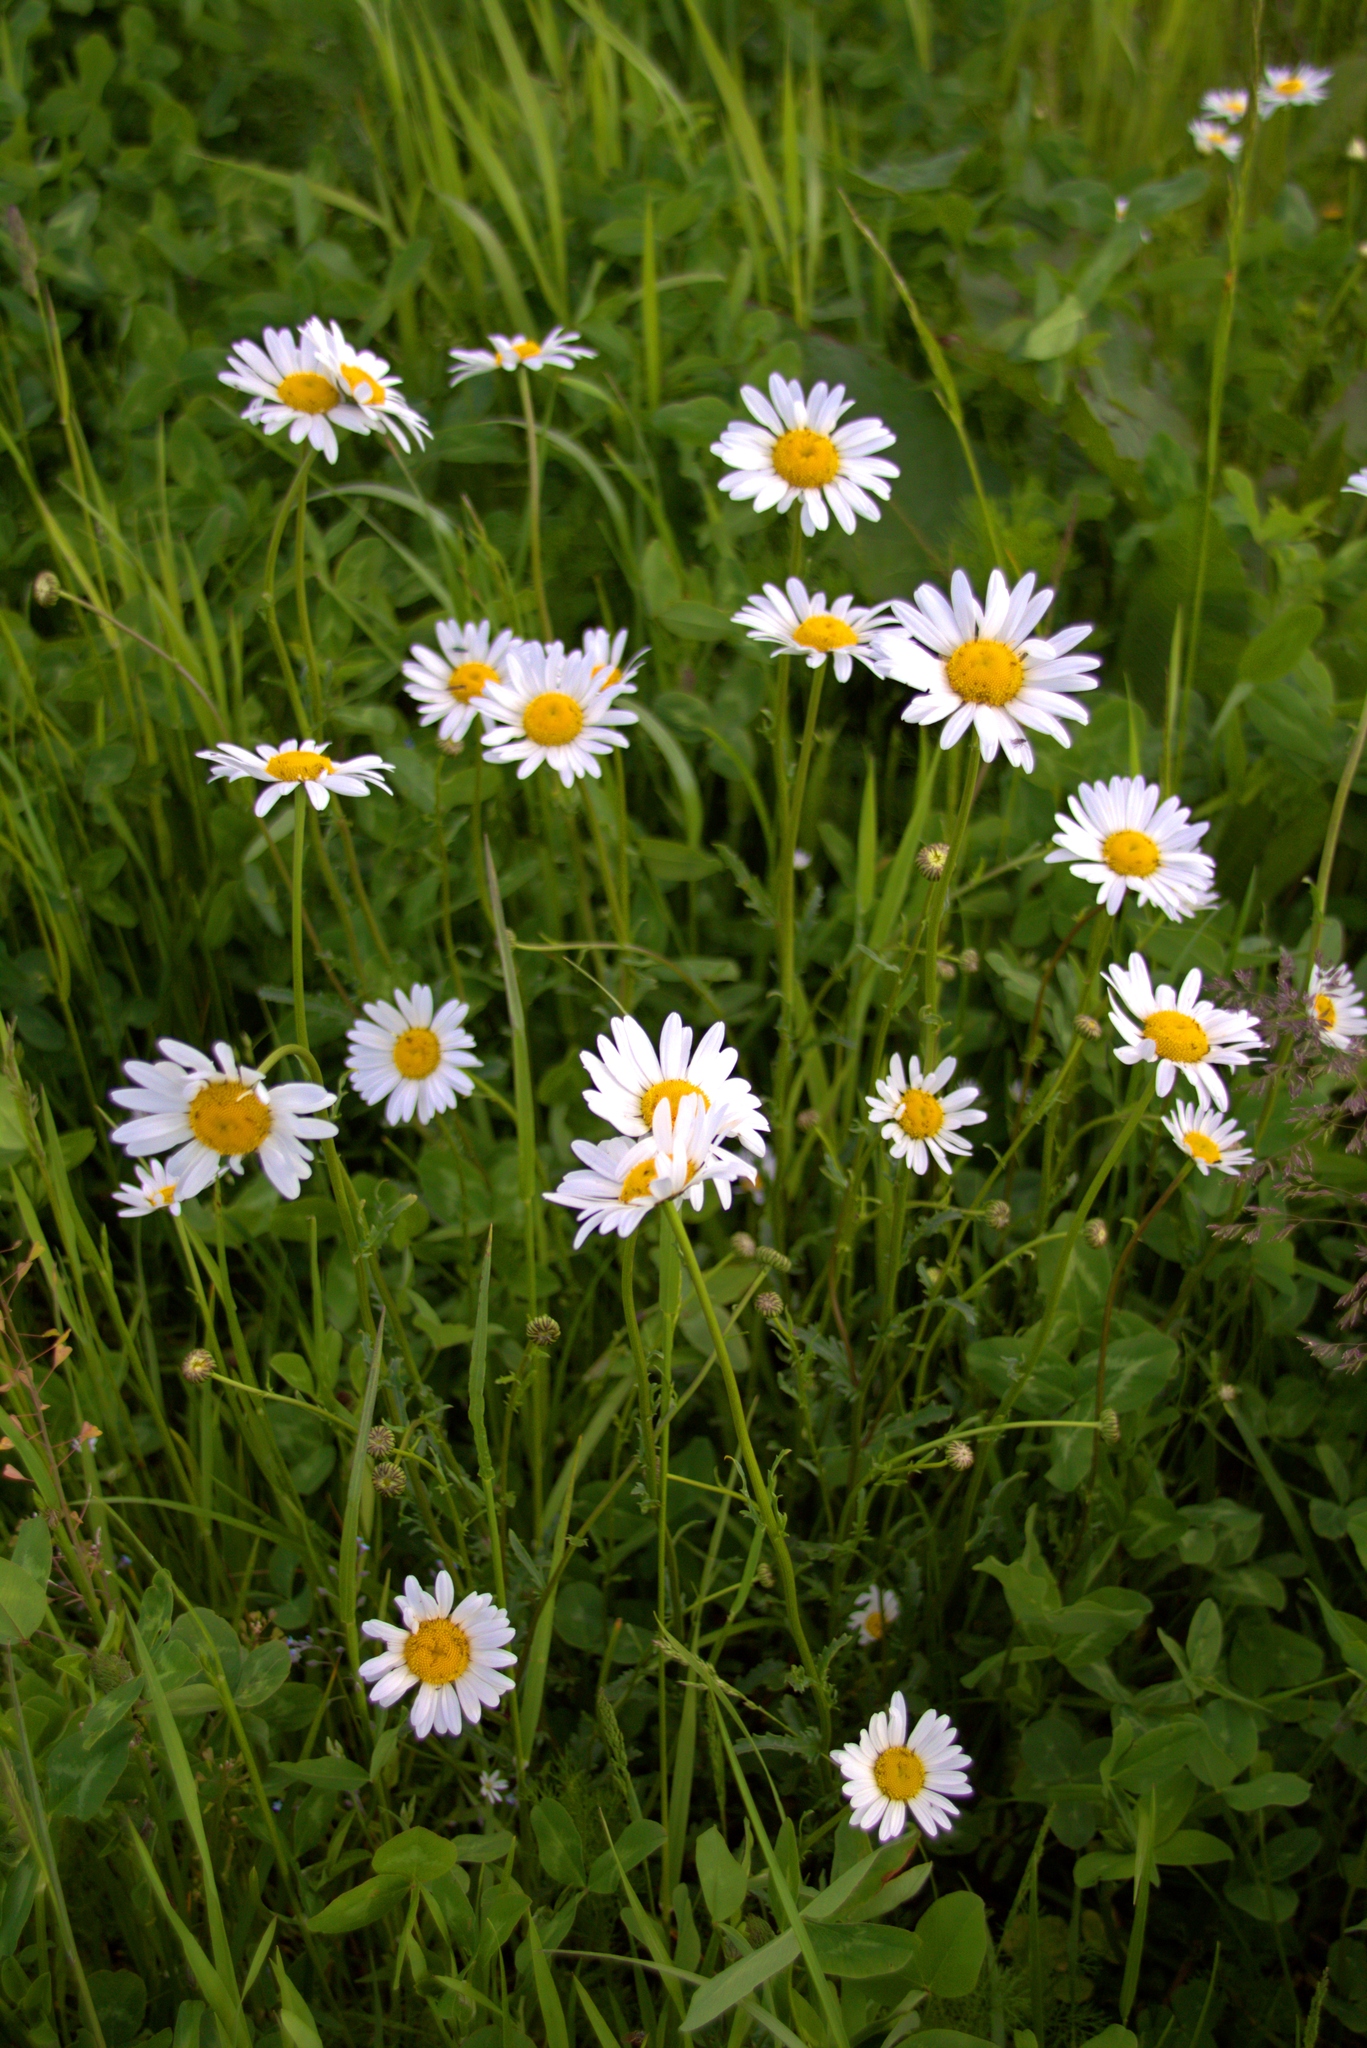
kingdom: Plantae
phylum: Tracheophyta
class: Magnoliopsida
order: Asterales
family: Asteraceae
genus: Leucanthemum
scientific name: Leucanthemum vulgare
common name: Oxeye daisy
